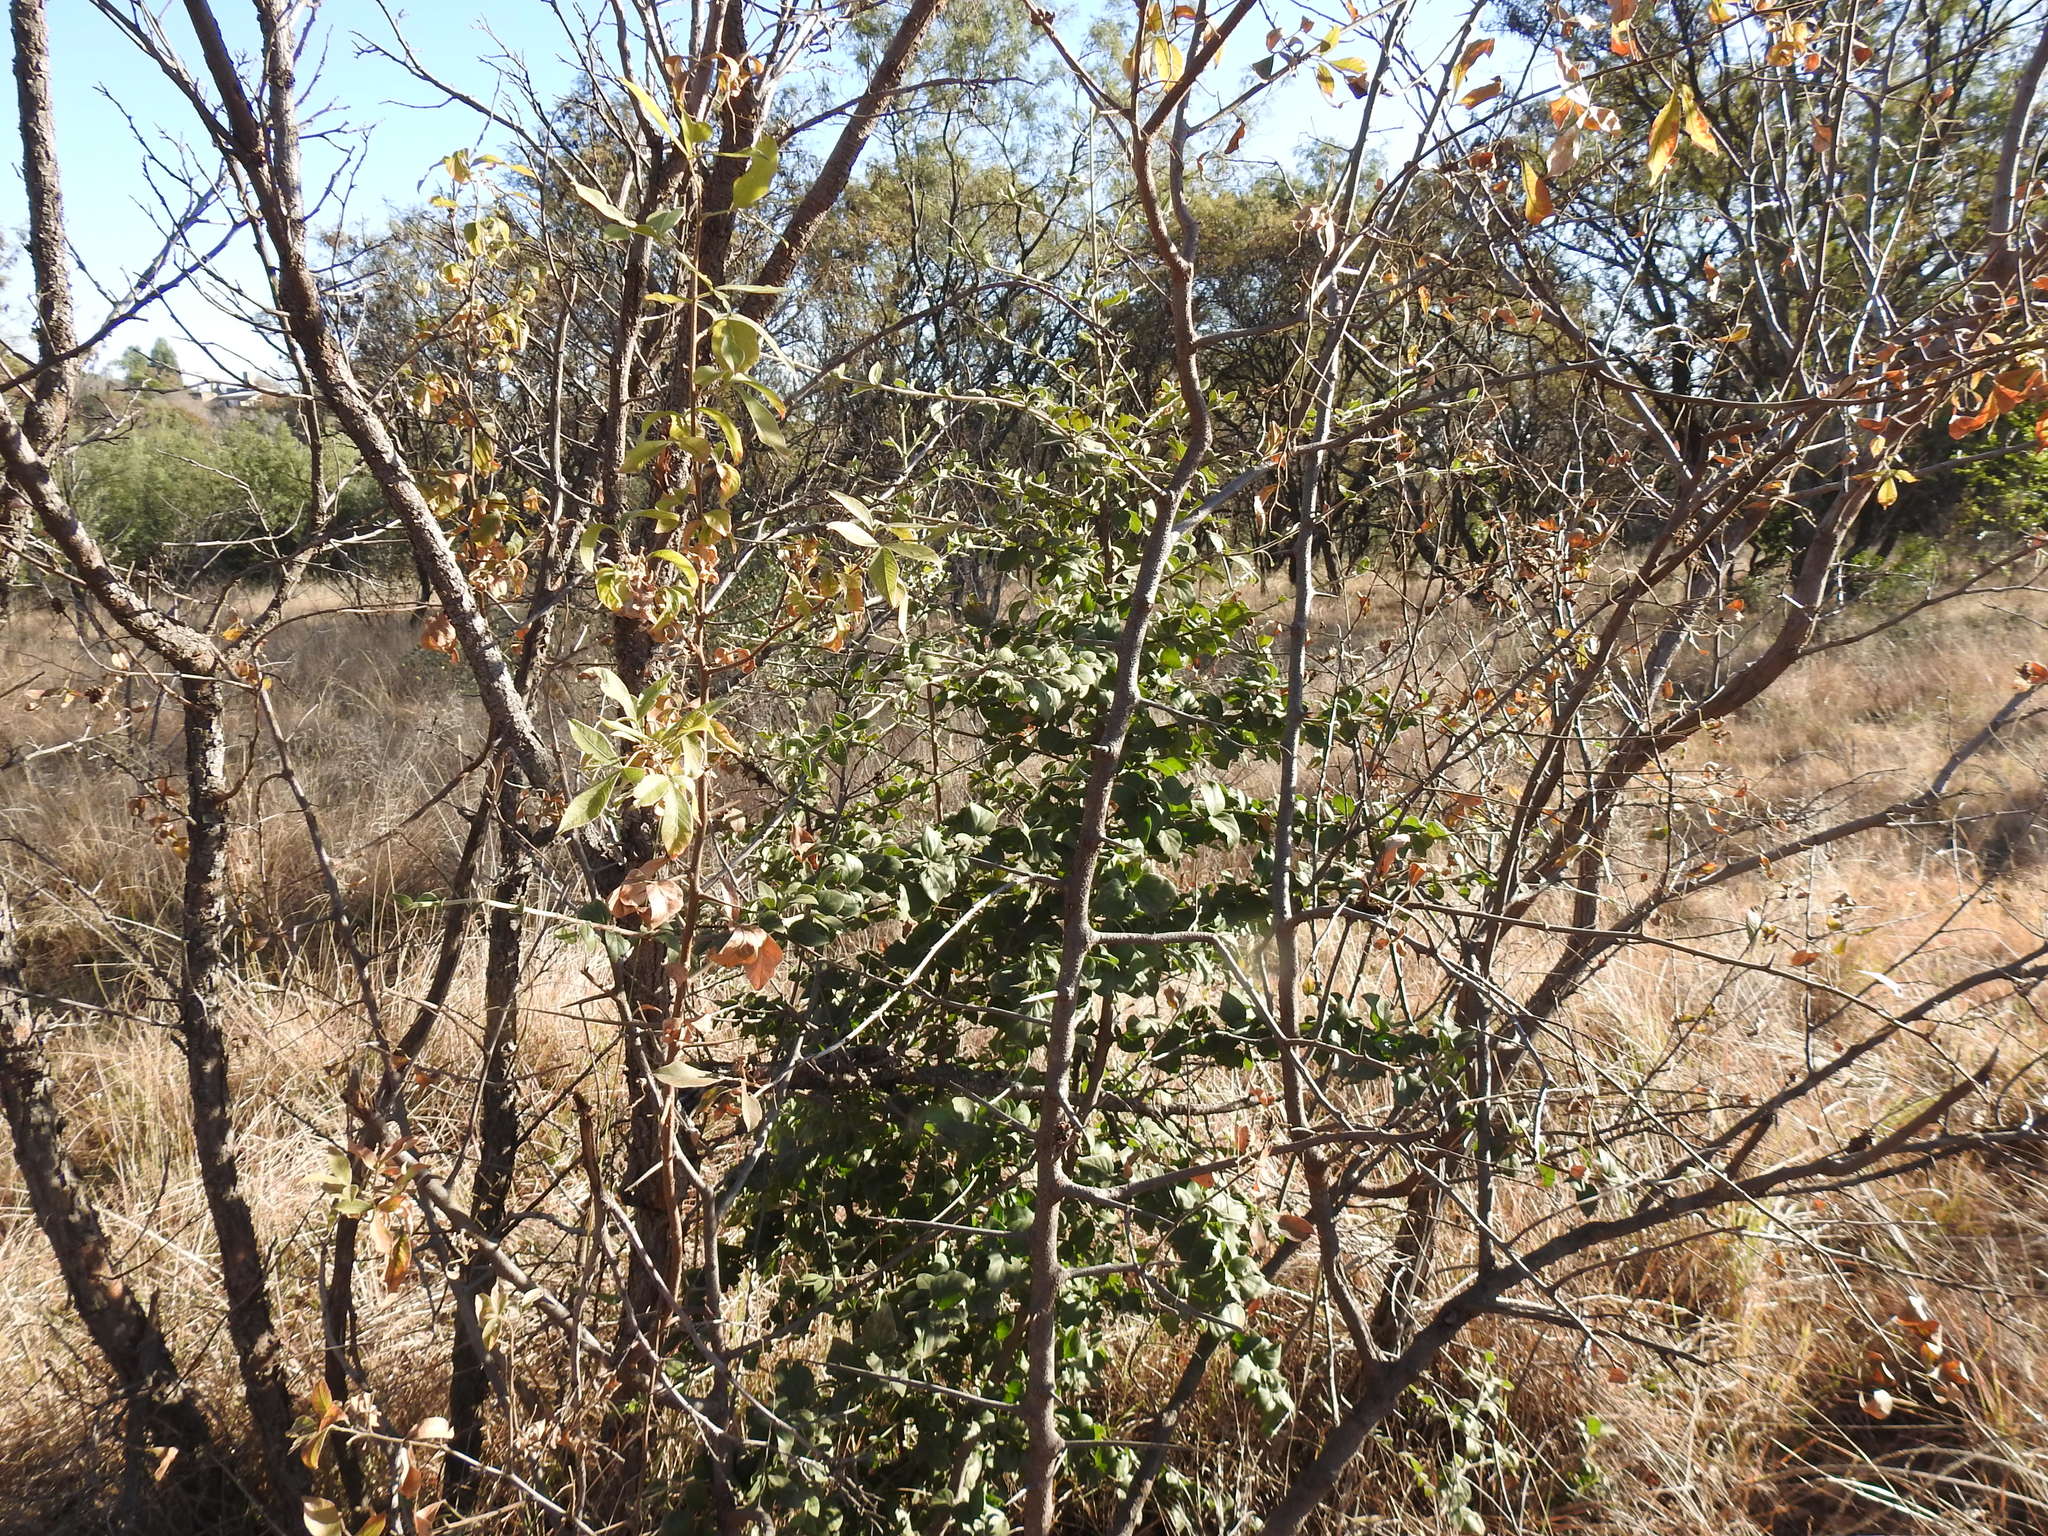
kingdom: Plantae
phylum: Tracheophyta
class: Magnoliopsida
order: Gentianales
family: Rubiaceae
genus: Afrocanthium
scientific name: Afrocanthium gilfillanii
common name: Velvet rock-alder
